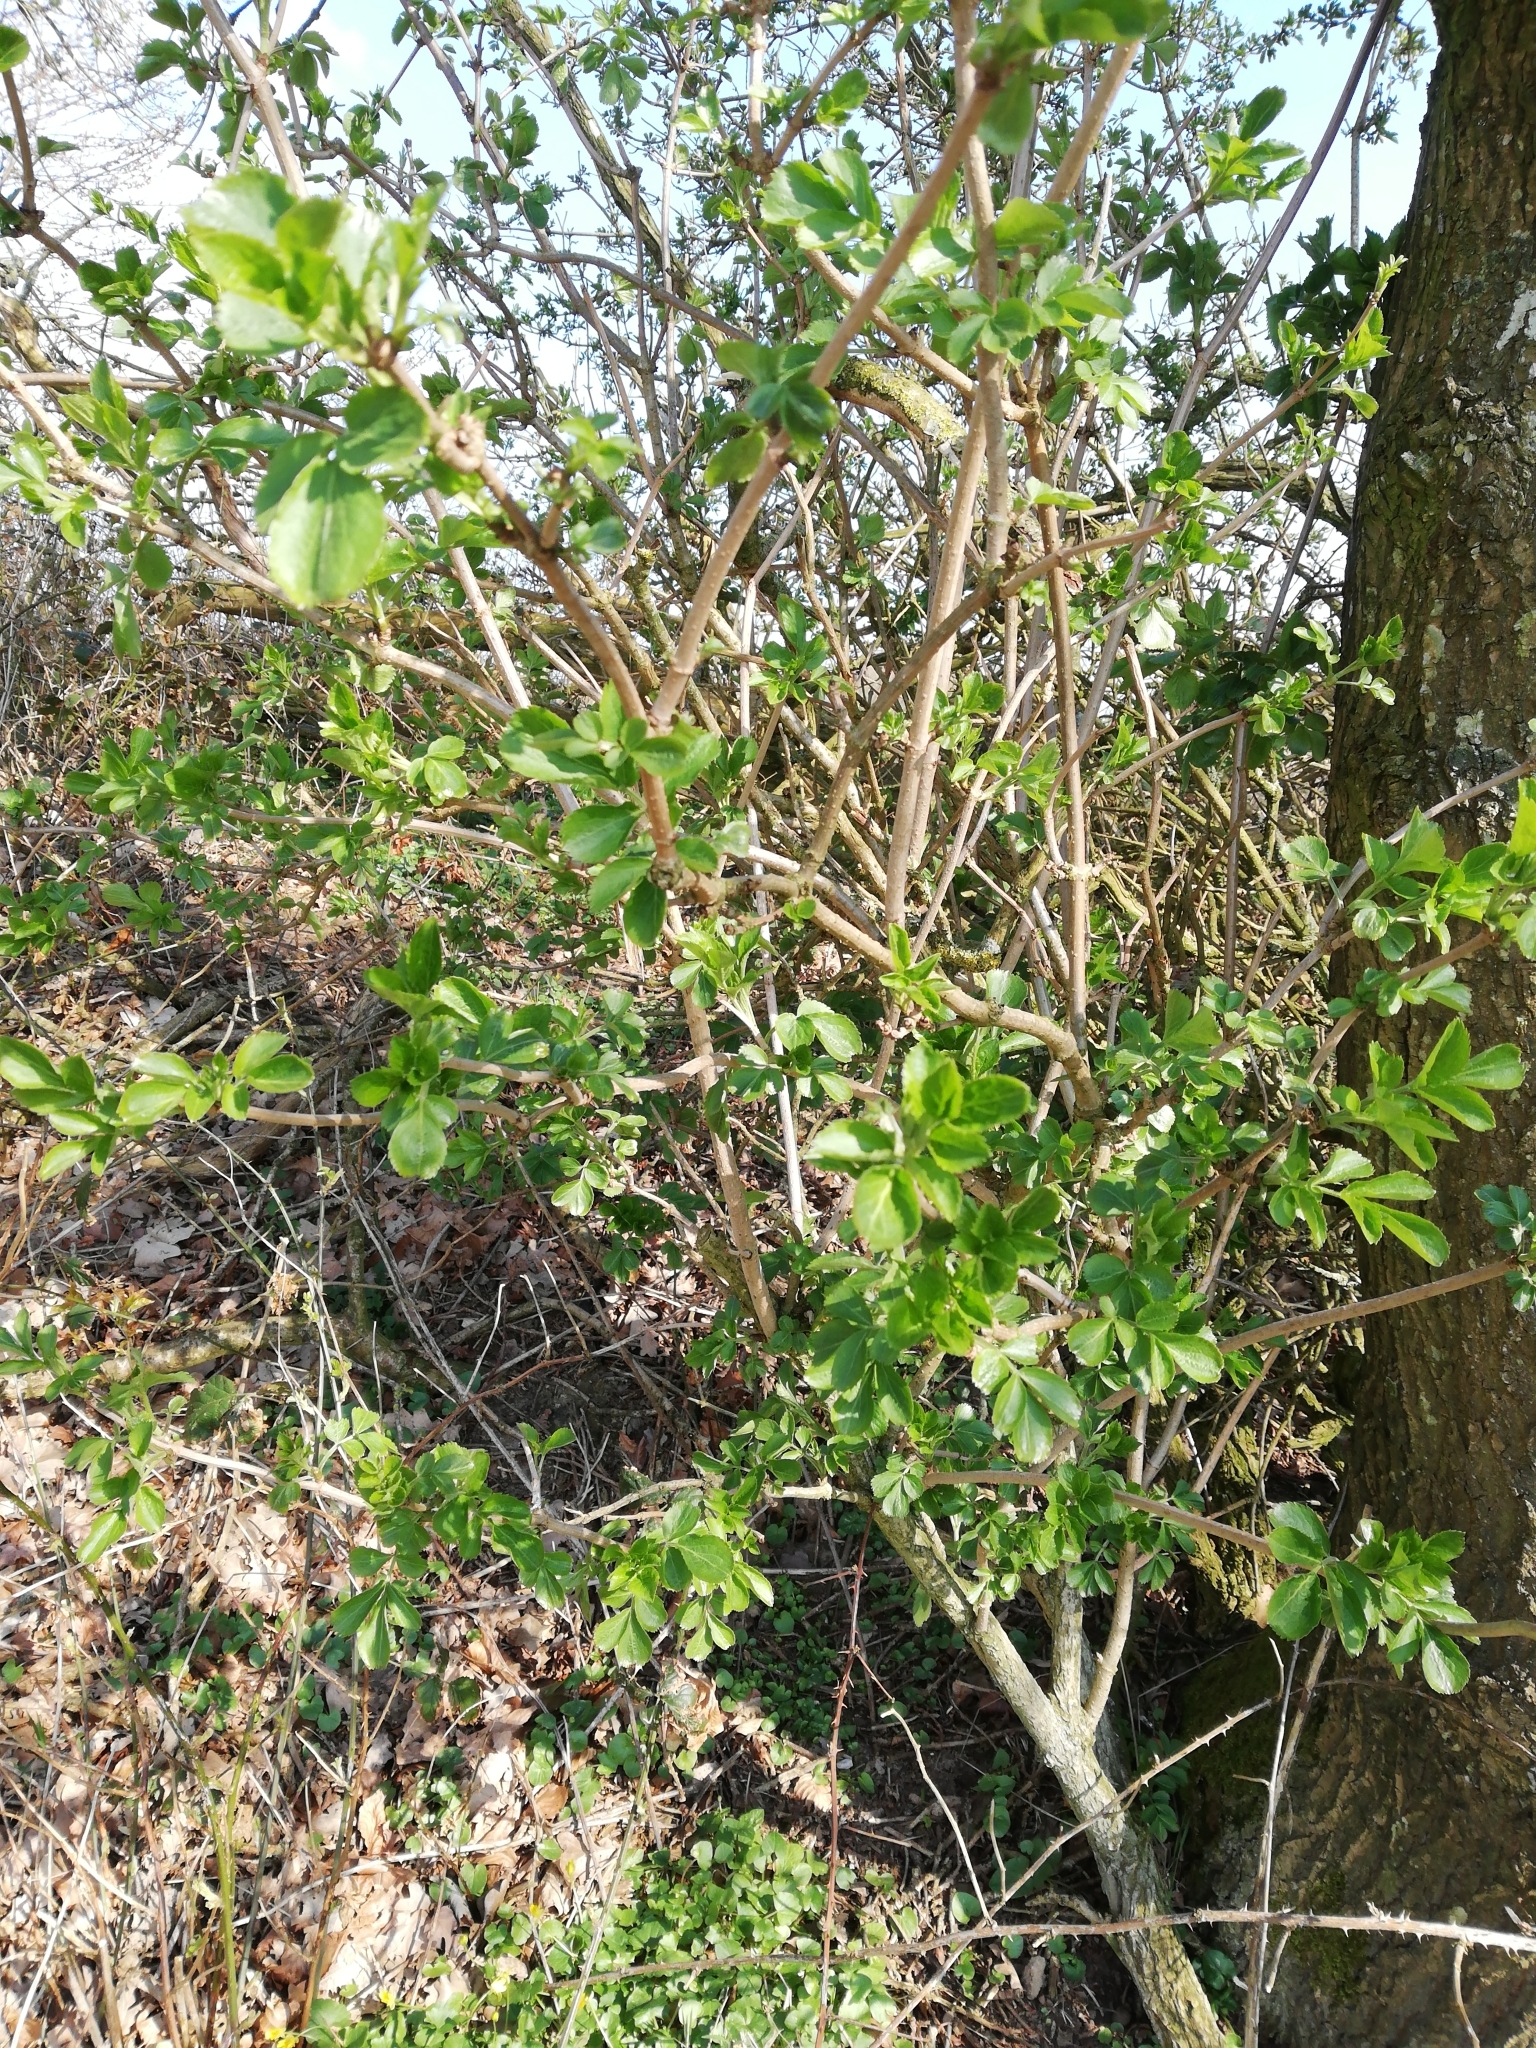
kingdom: Plantae
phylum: Tracheophyta
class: Magnoliopsida
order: Dipsacales
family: Viburnaceae
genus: Sambucus
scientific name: Sambucus nigra
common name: Elder
